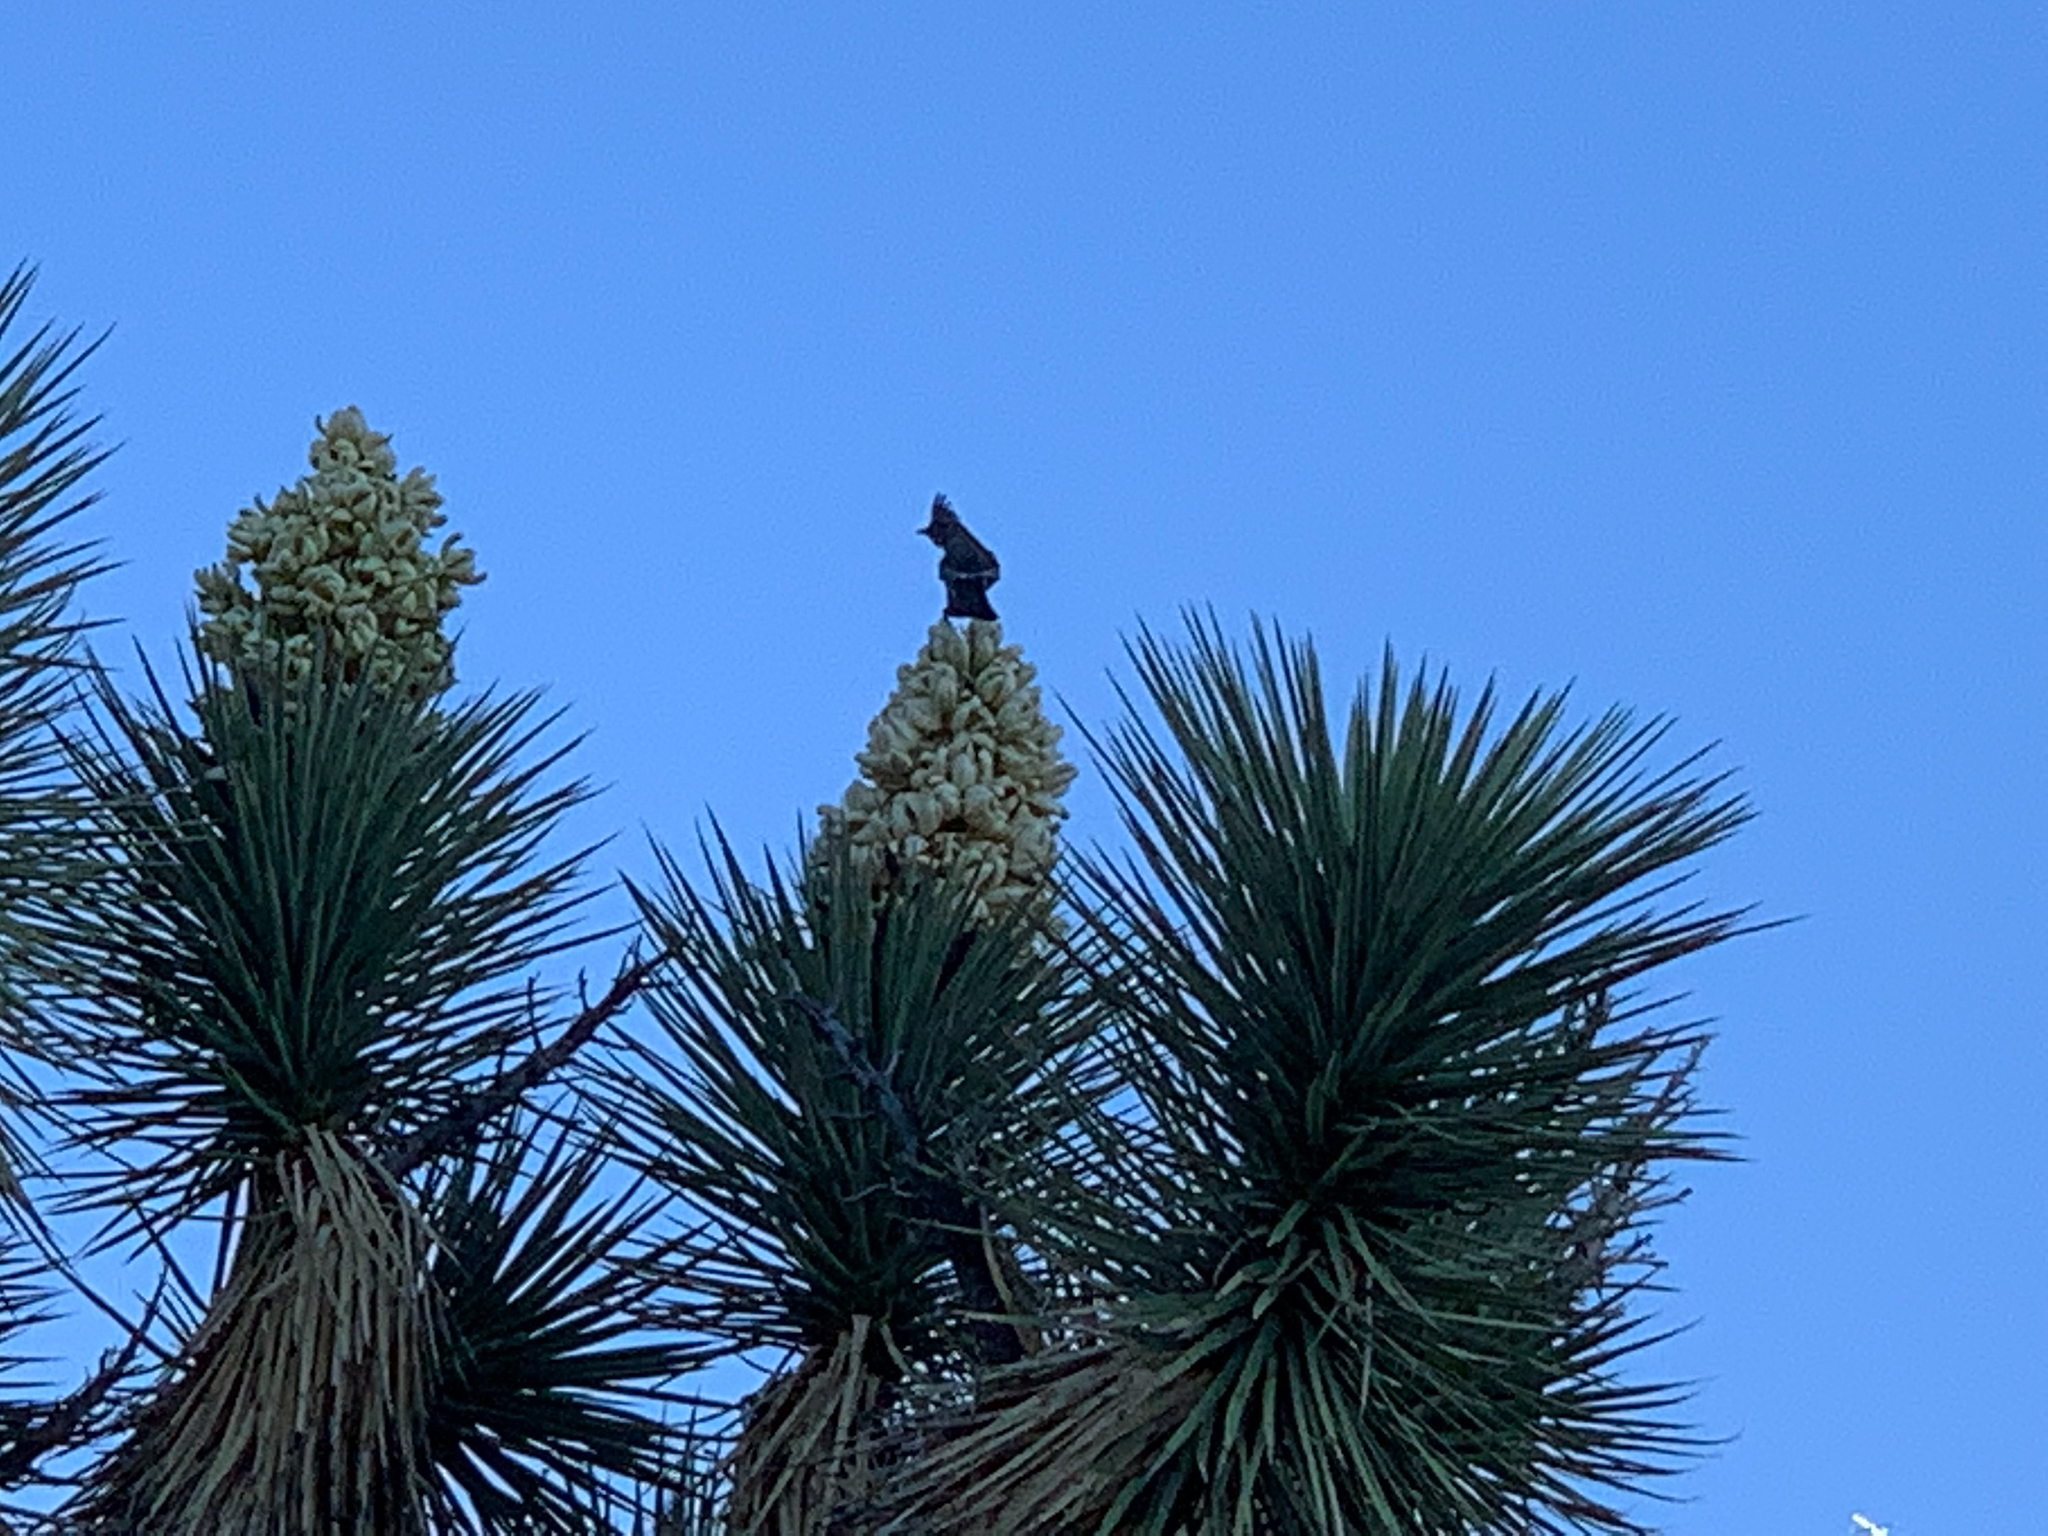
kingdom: Animalia
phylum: Chordata
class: Aves
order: Passeriformes
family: Ptilogonatidae
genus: Phainopepla
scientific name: Phainopepla nitens
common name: Phainopepla
